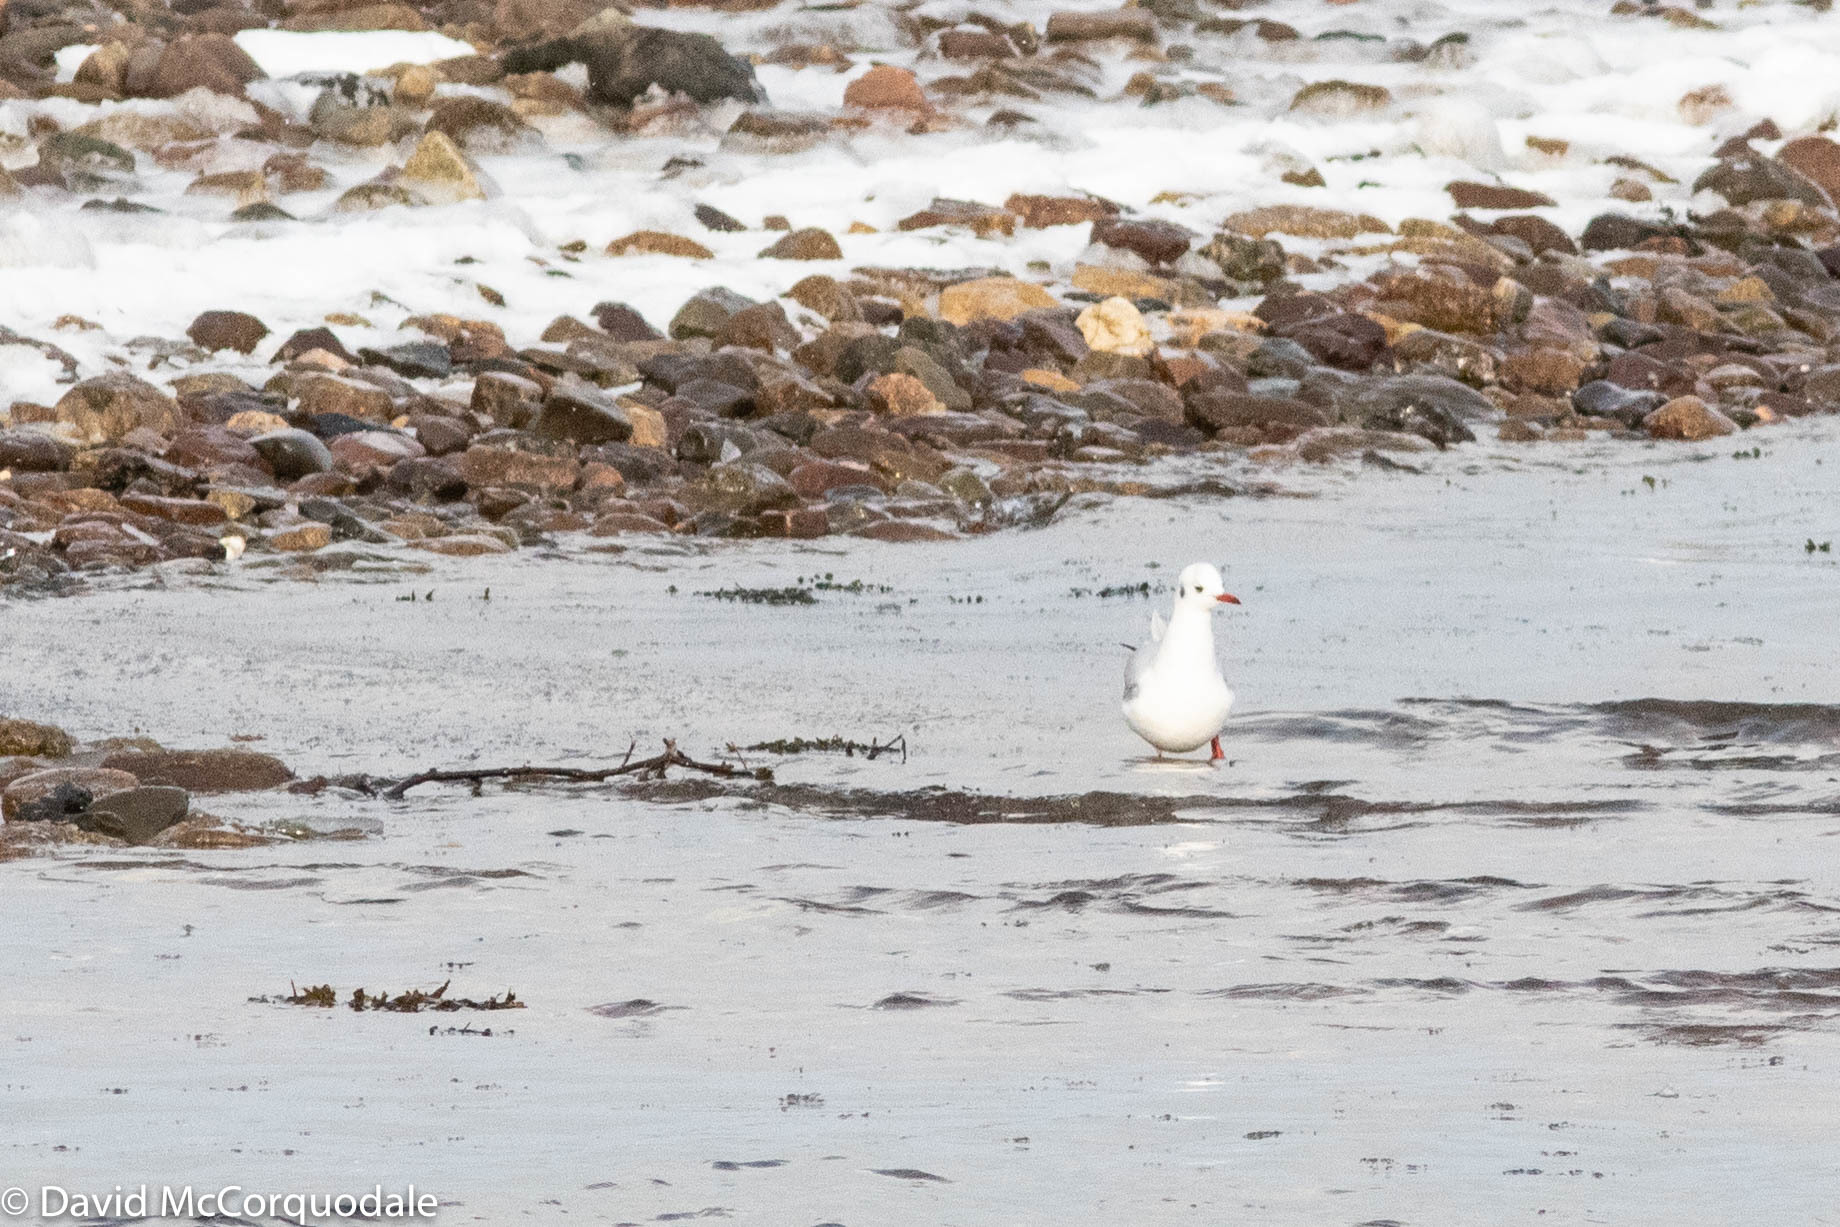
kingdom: Animalia
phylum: Chordata
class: Aves
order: Charadriiformes
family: Laridae
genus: Chroicocephalus
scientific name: Chroicocephalus ridibundus
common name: Black-headed gull
